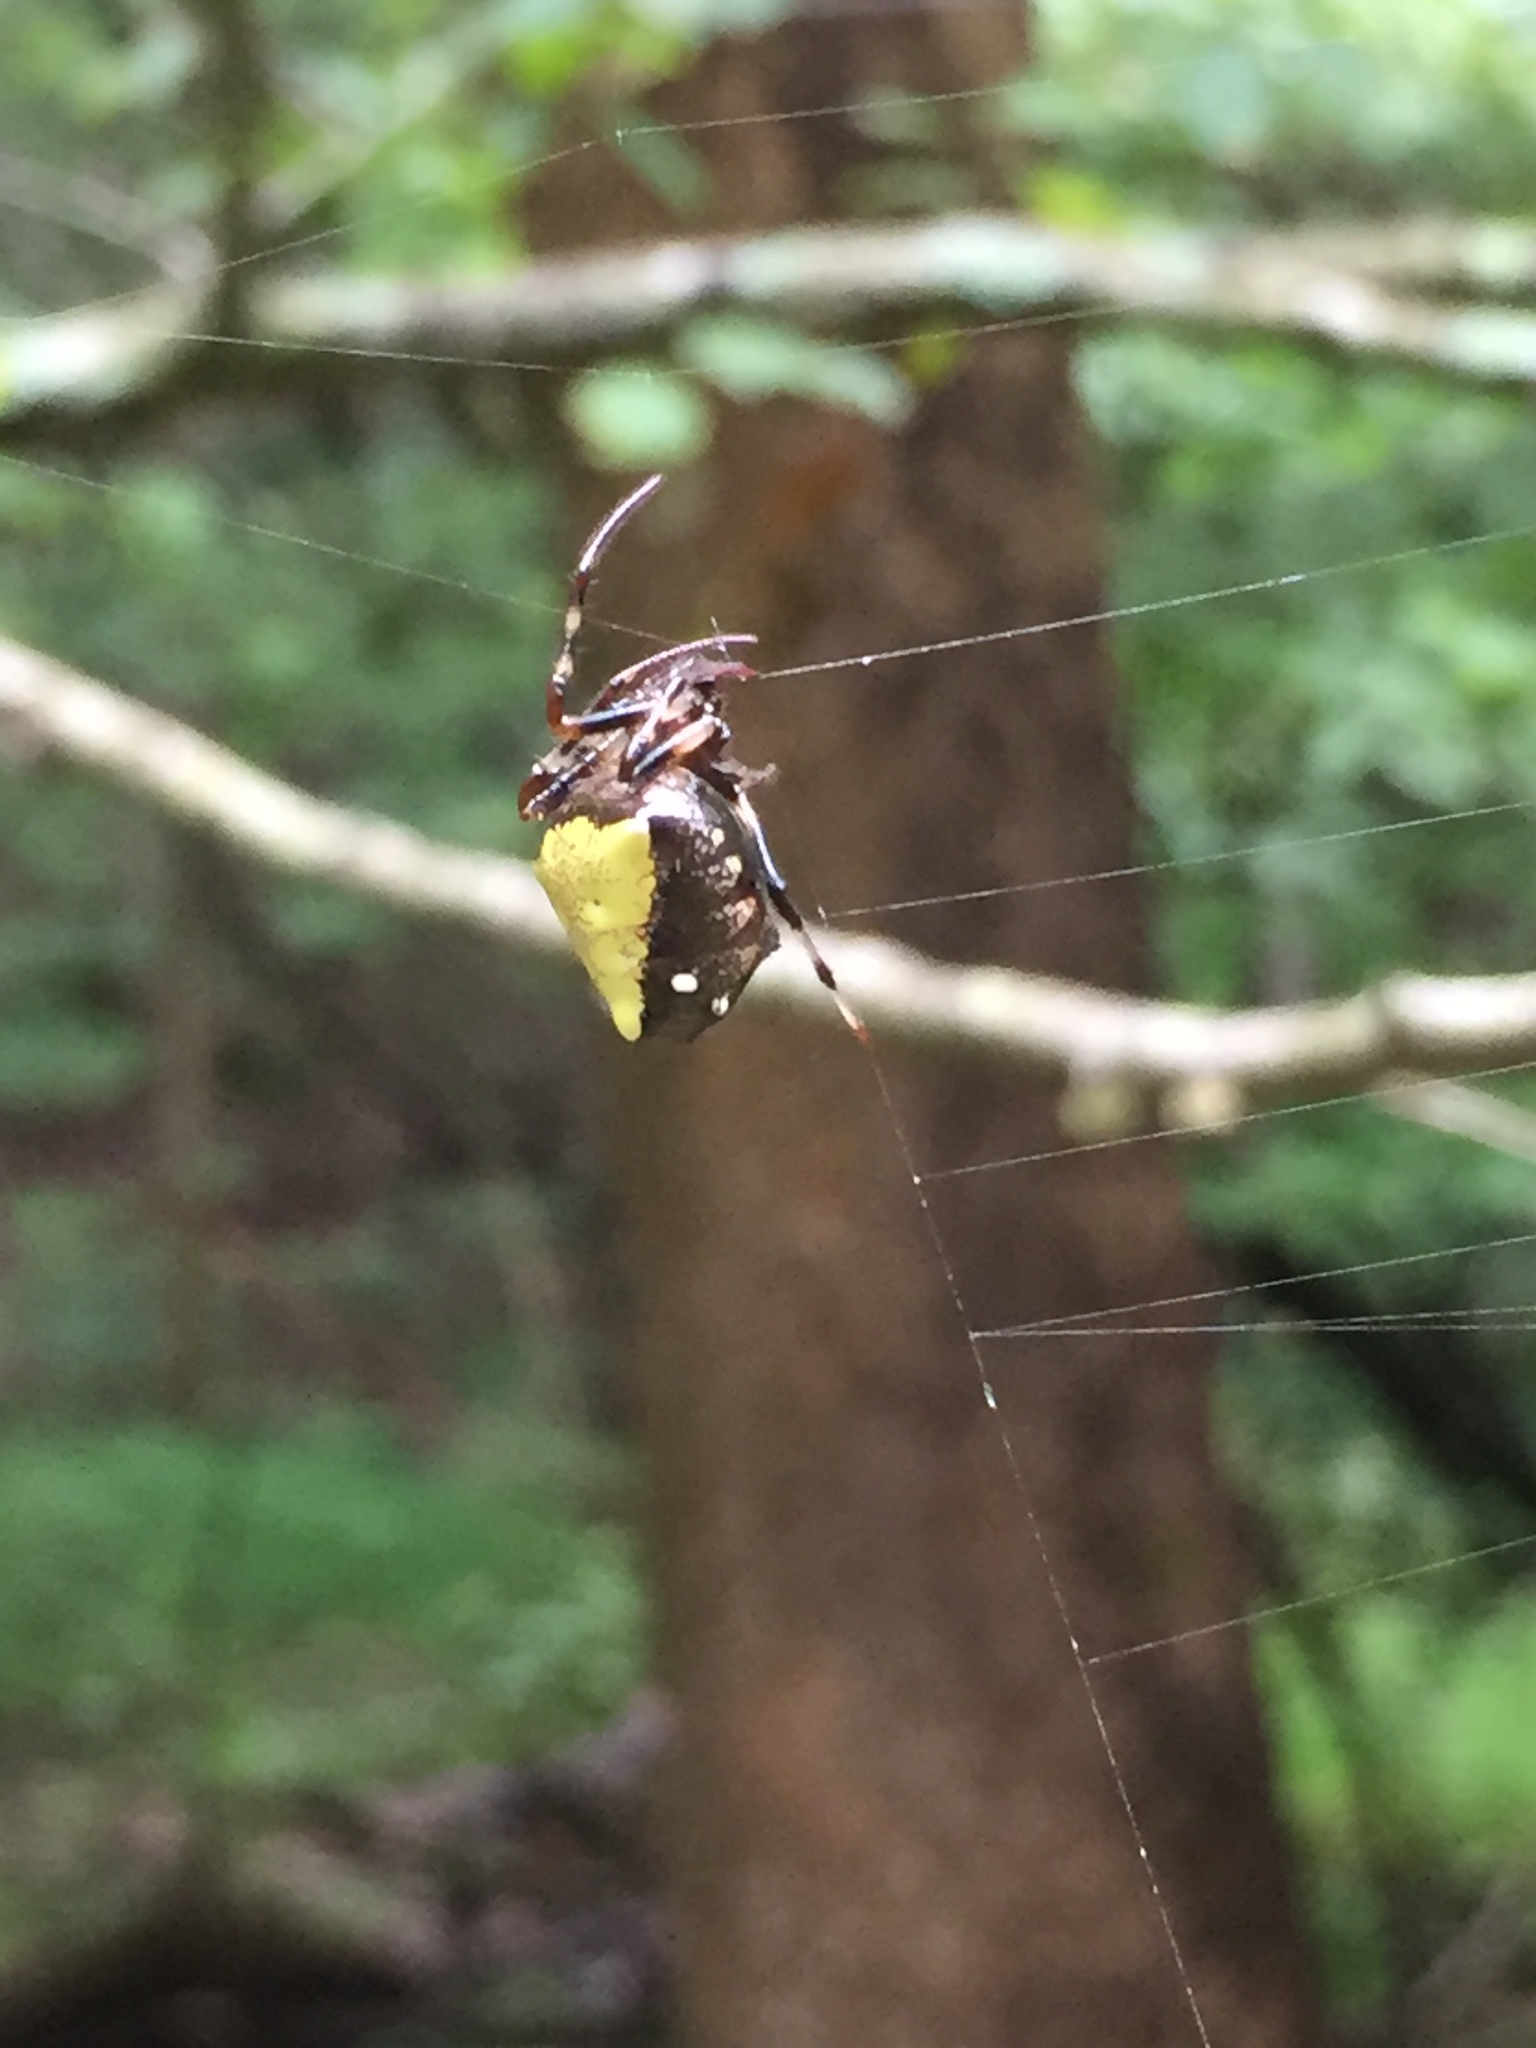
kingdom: Animalia
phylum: Arthropoda
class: Arachnida
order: Araneae
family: Araneidae
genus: Verrucosa
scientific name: Verrucosa arenata
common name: Orb weavers
